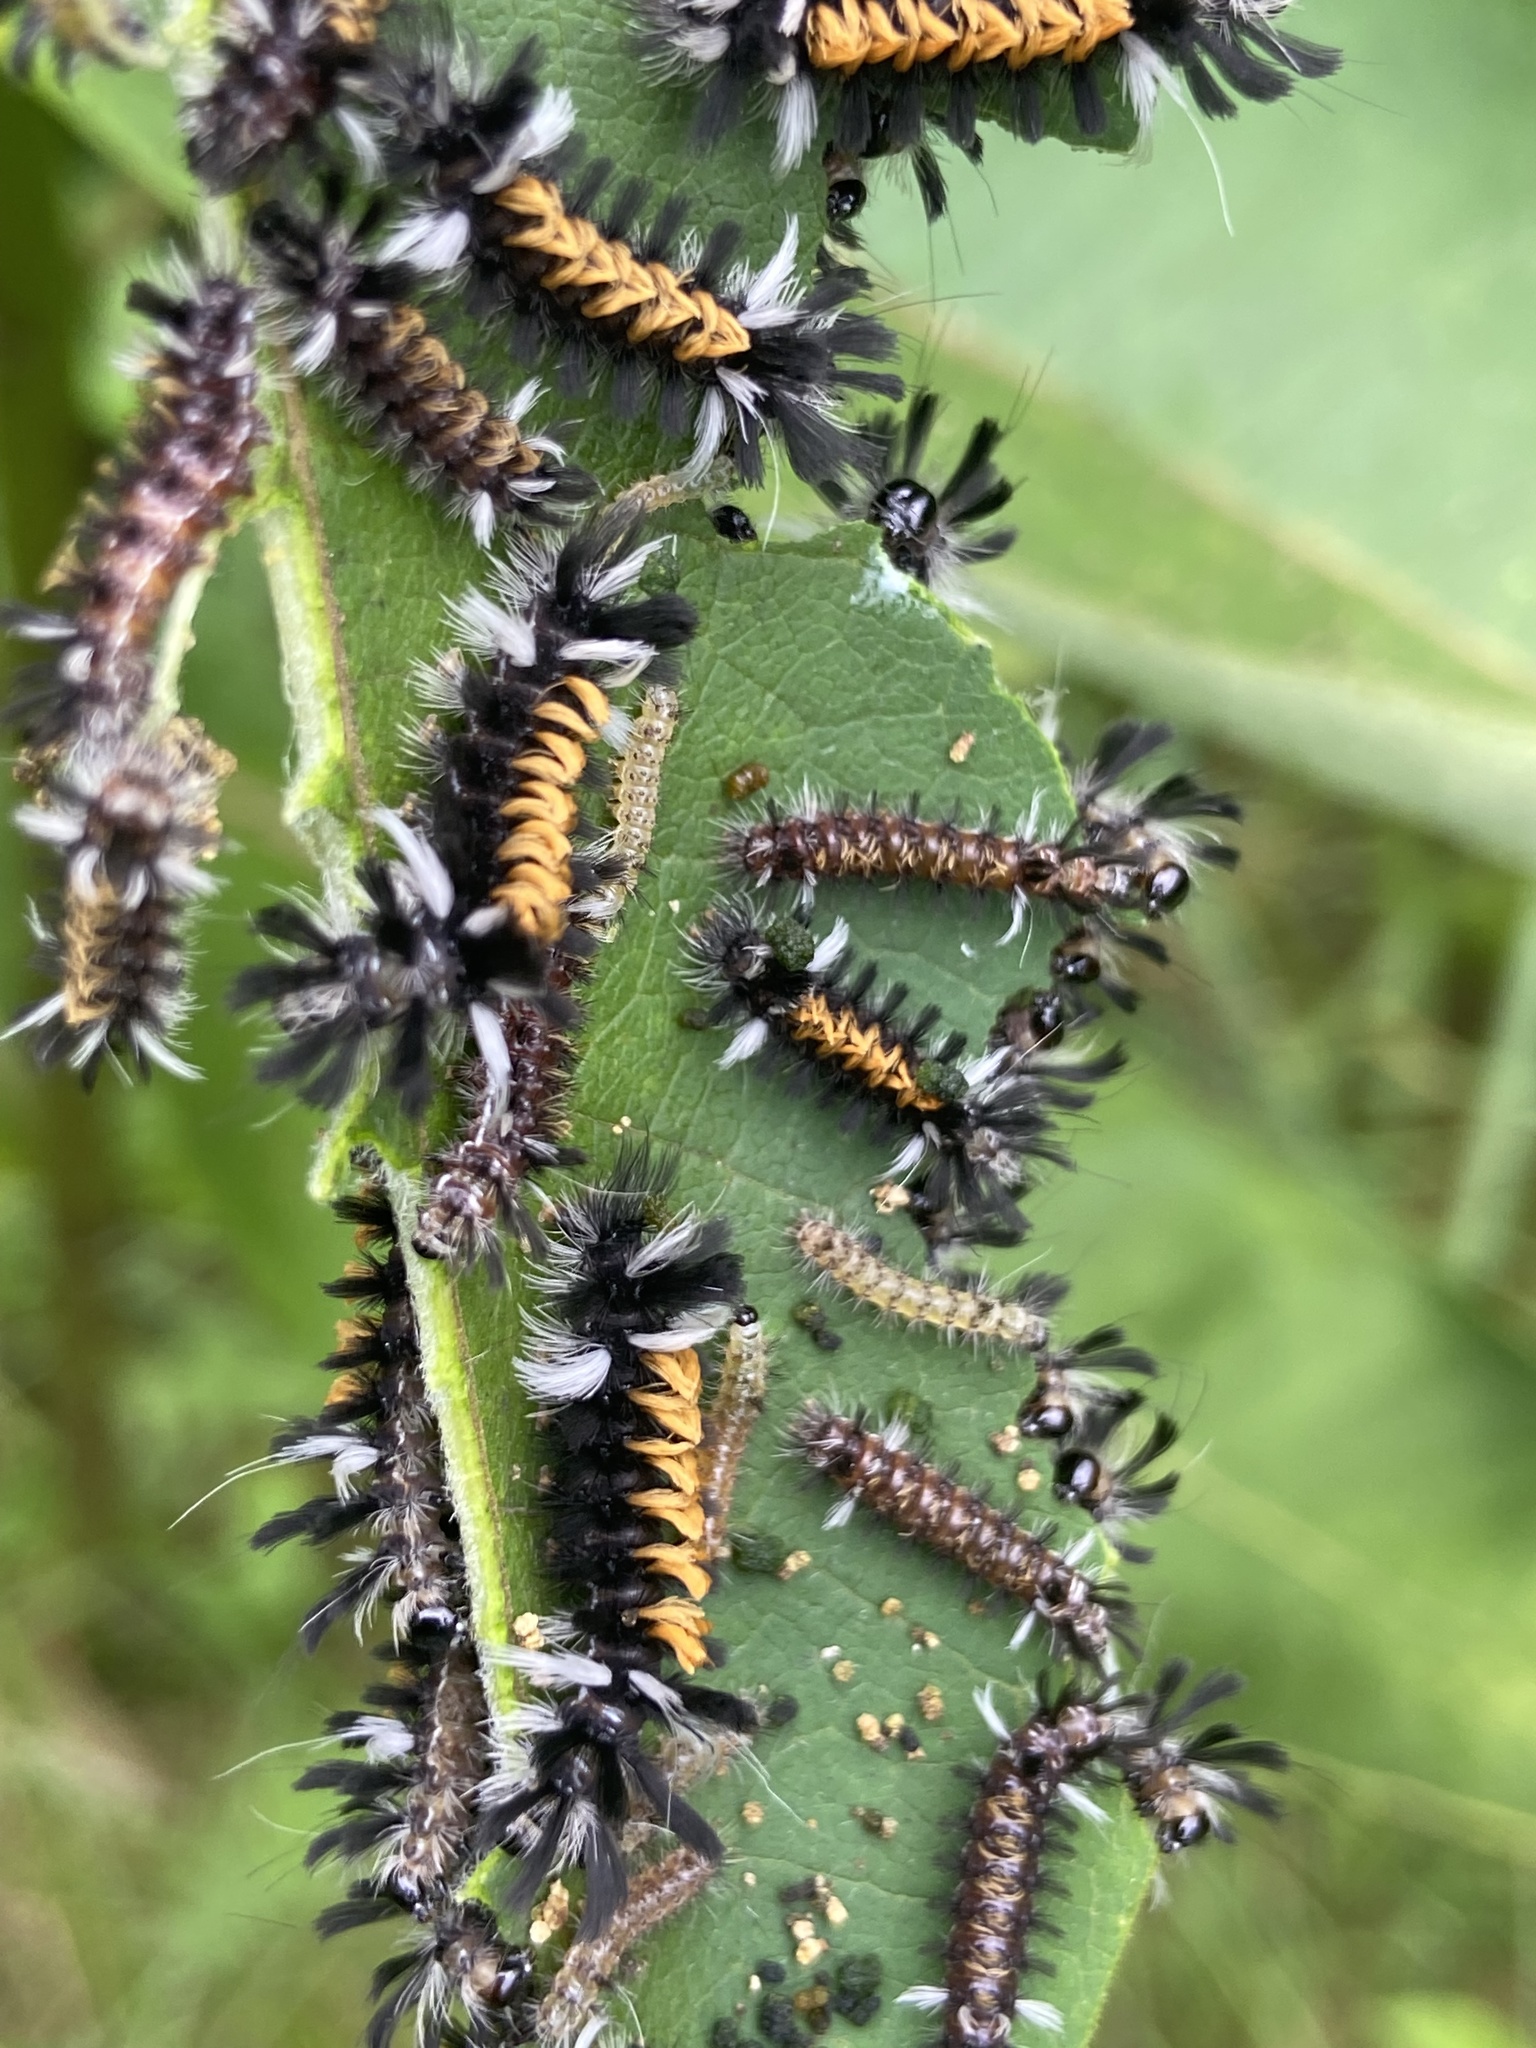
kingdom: Animalia
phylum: Arthropoda
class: Insecta
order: Lepidoptera
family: Erebidae
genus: Euchaetes
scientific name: Euchaetes egle
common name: Milkweed tussock moth
